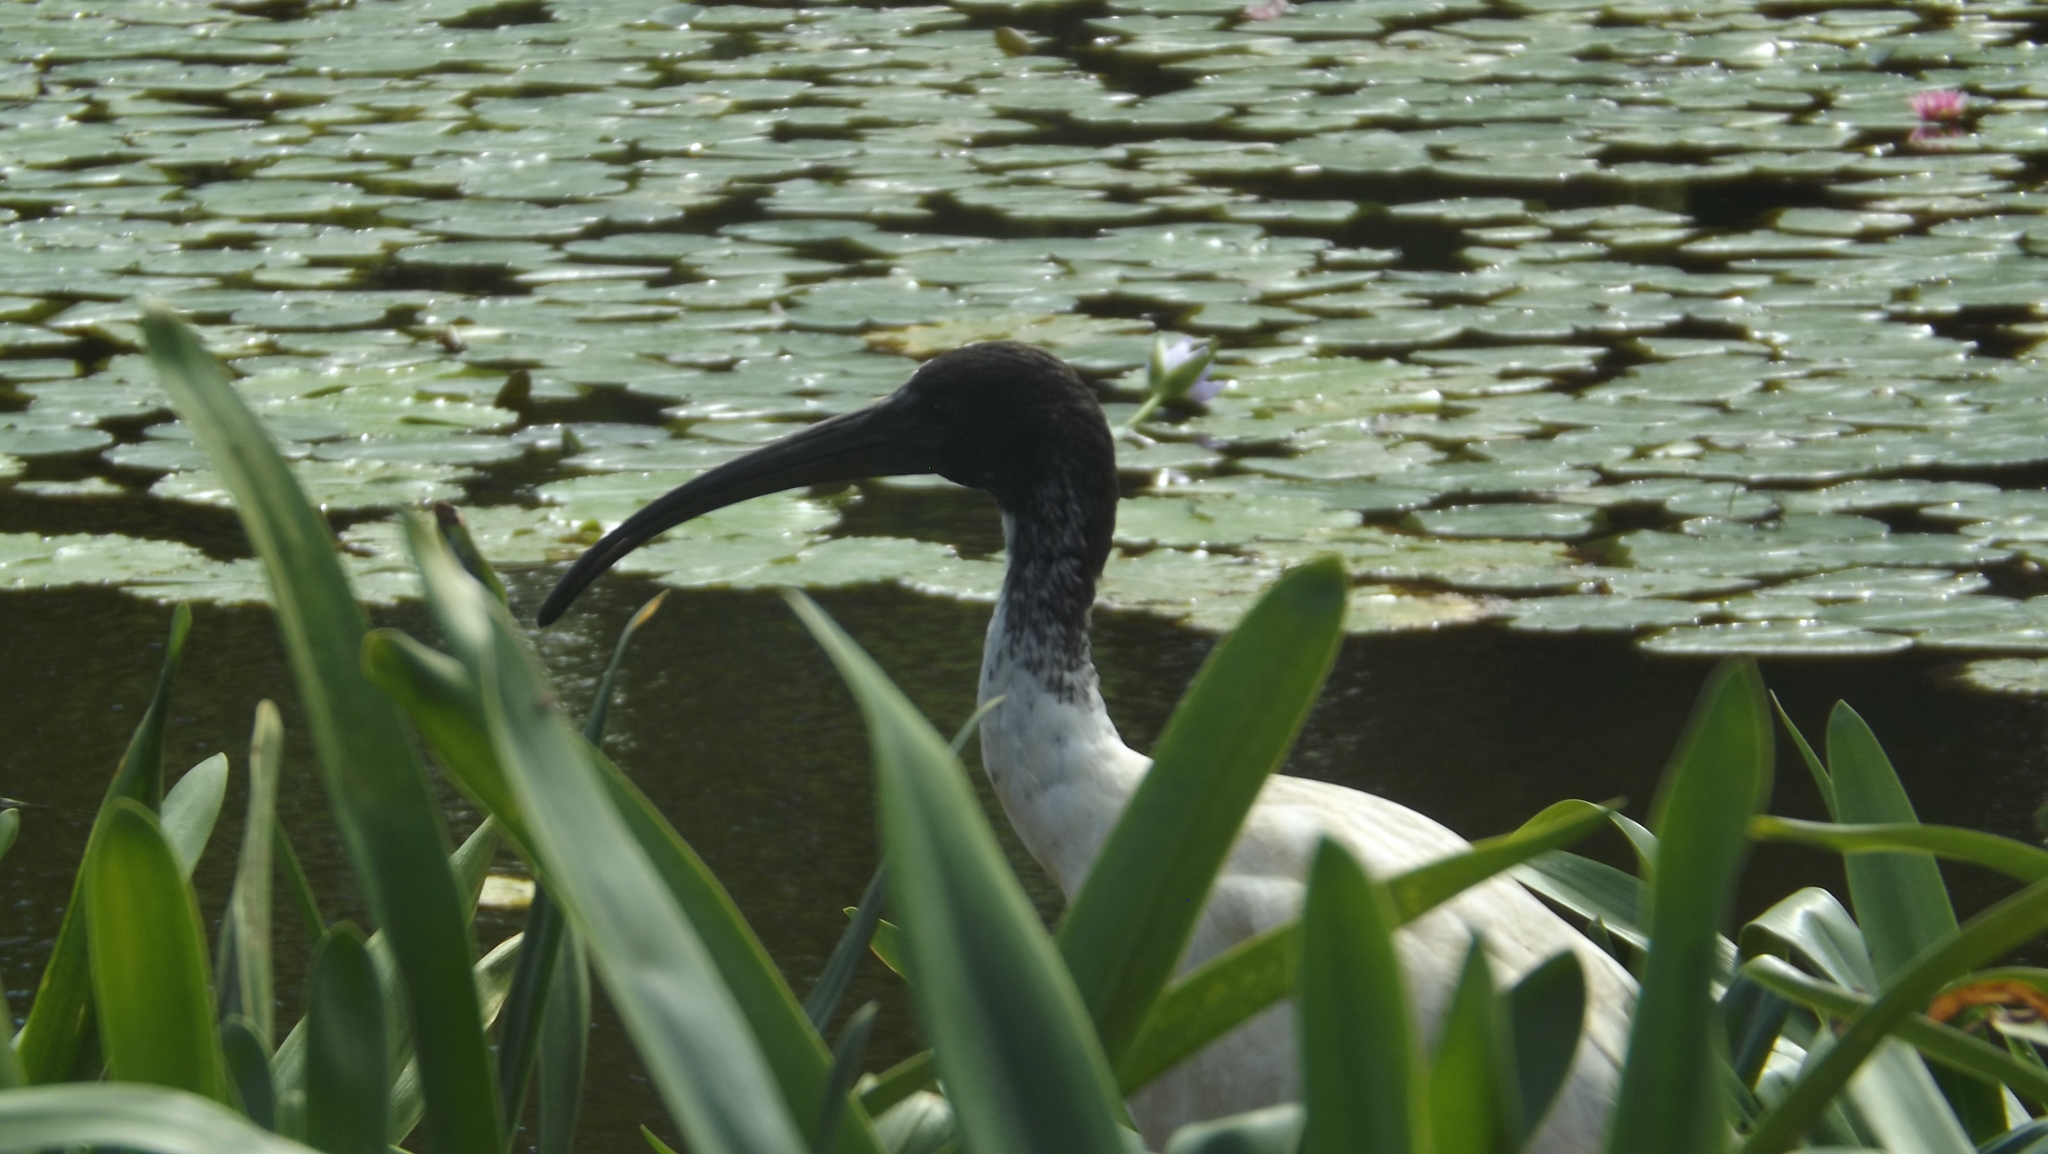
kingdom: Animalia
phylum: Chordata
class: Aves
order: Pelecaniformes
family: Threskiornithidae
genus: Threskiornis
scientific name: Threskiornis molucca
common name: Australian white ibis
